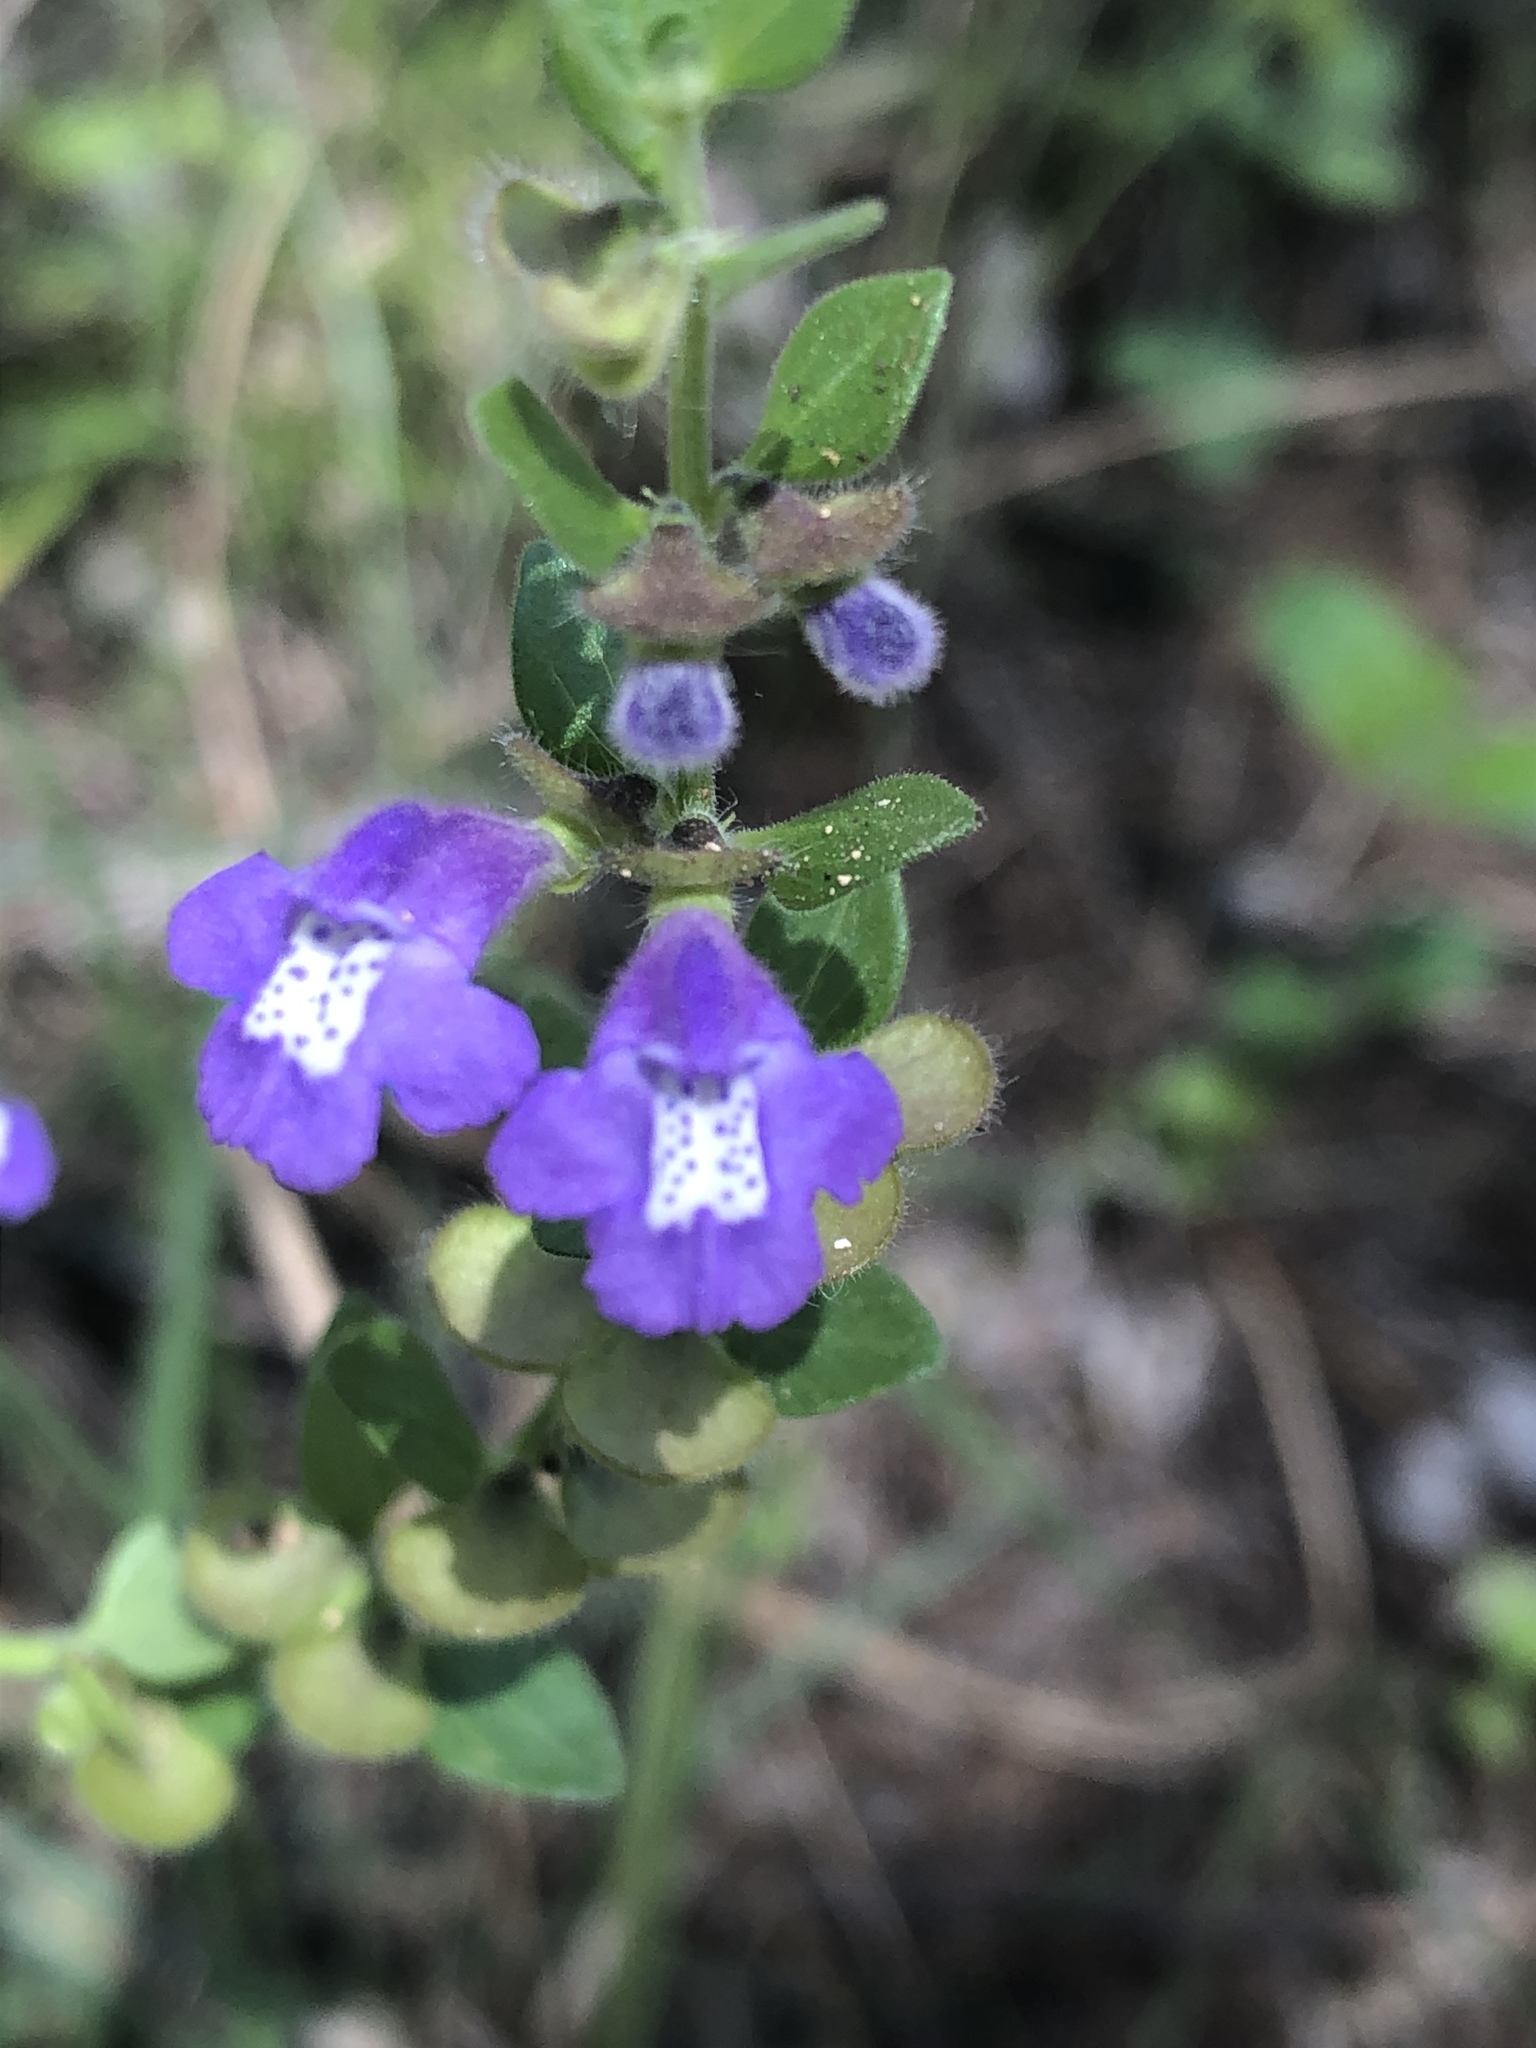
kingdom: Plantae
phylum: Tracheophyta
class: Magnoliopsida
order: Lamiales
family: Lamiaceae
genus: Scutellaria
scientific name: Scutellaria drummondii
